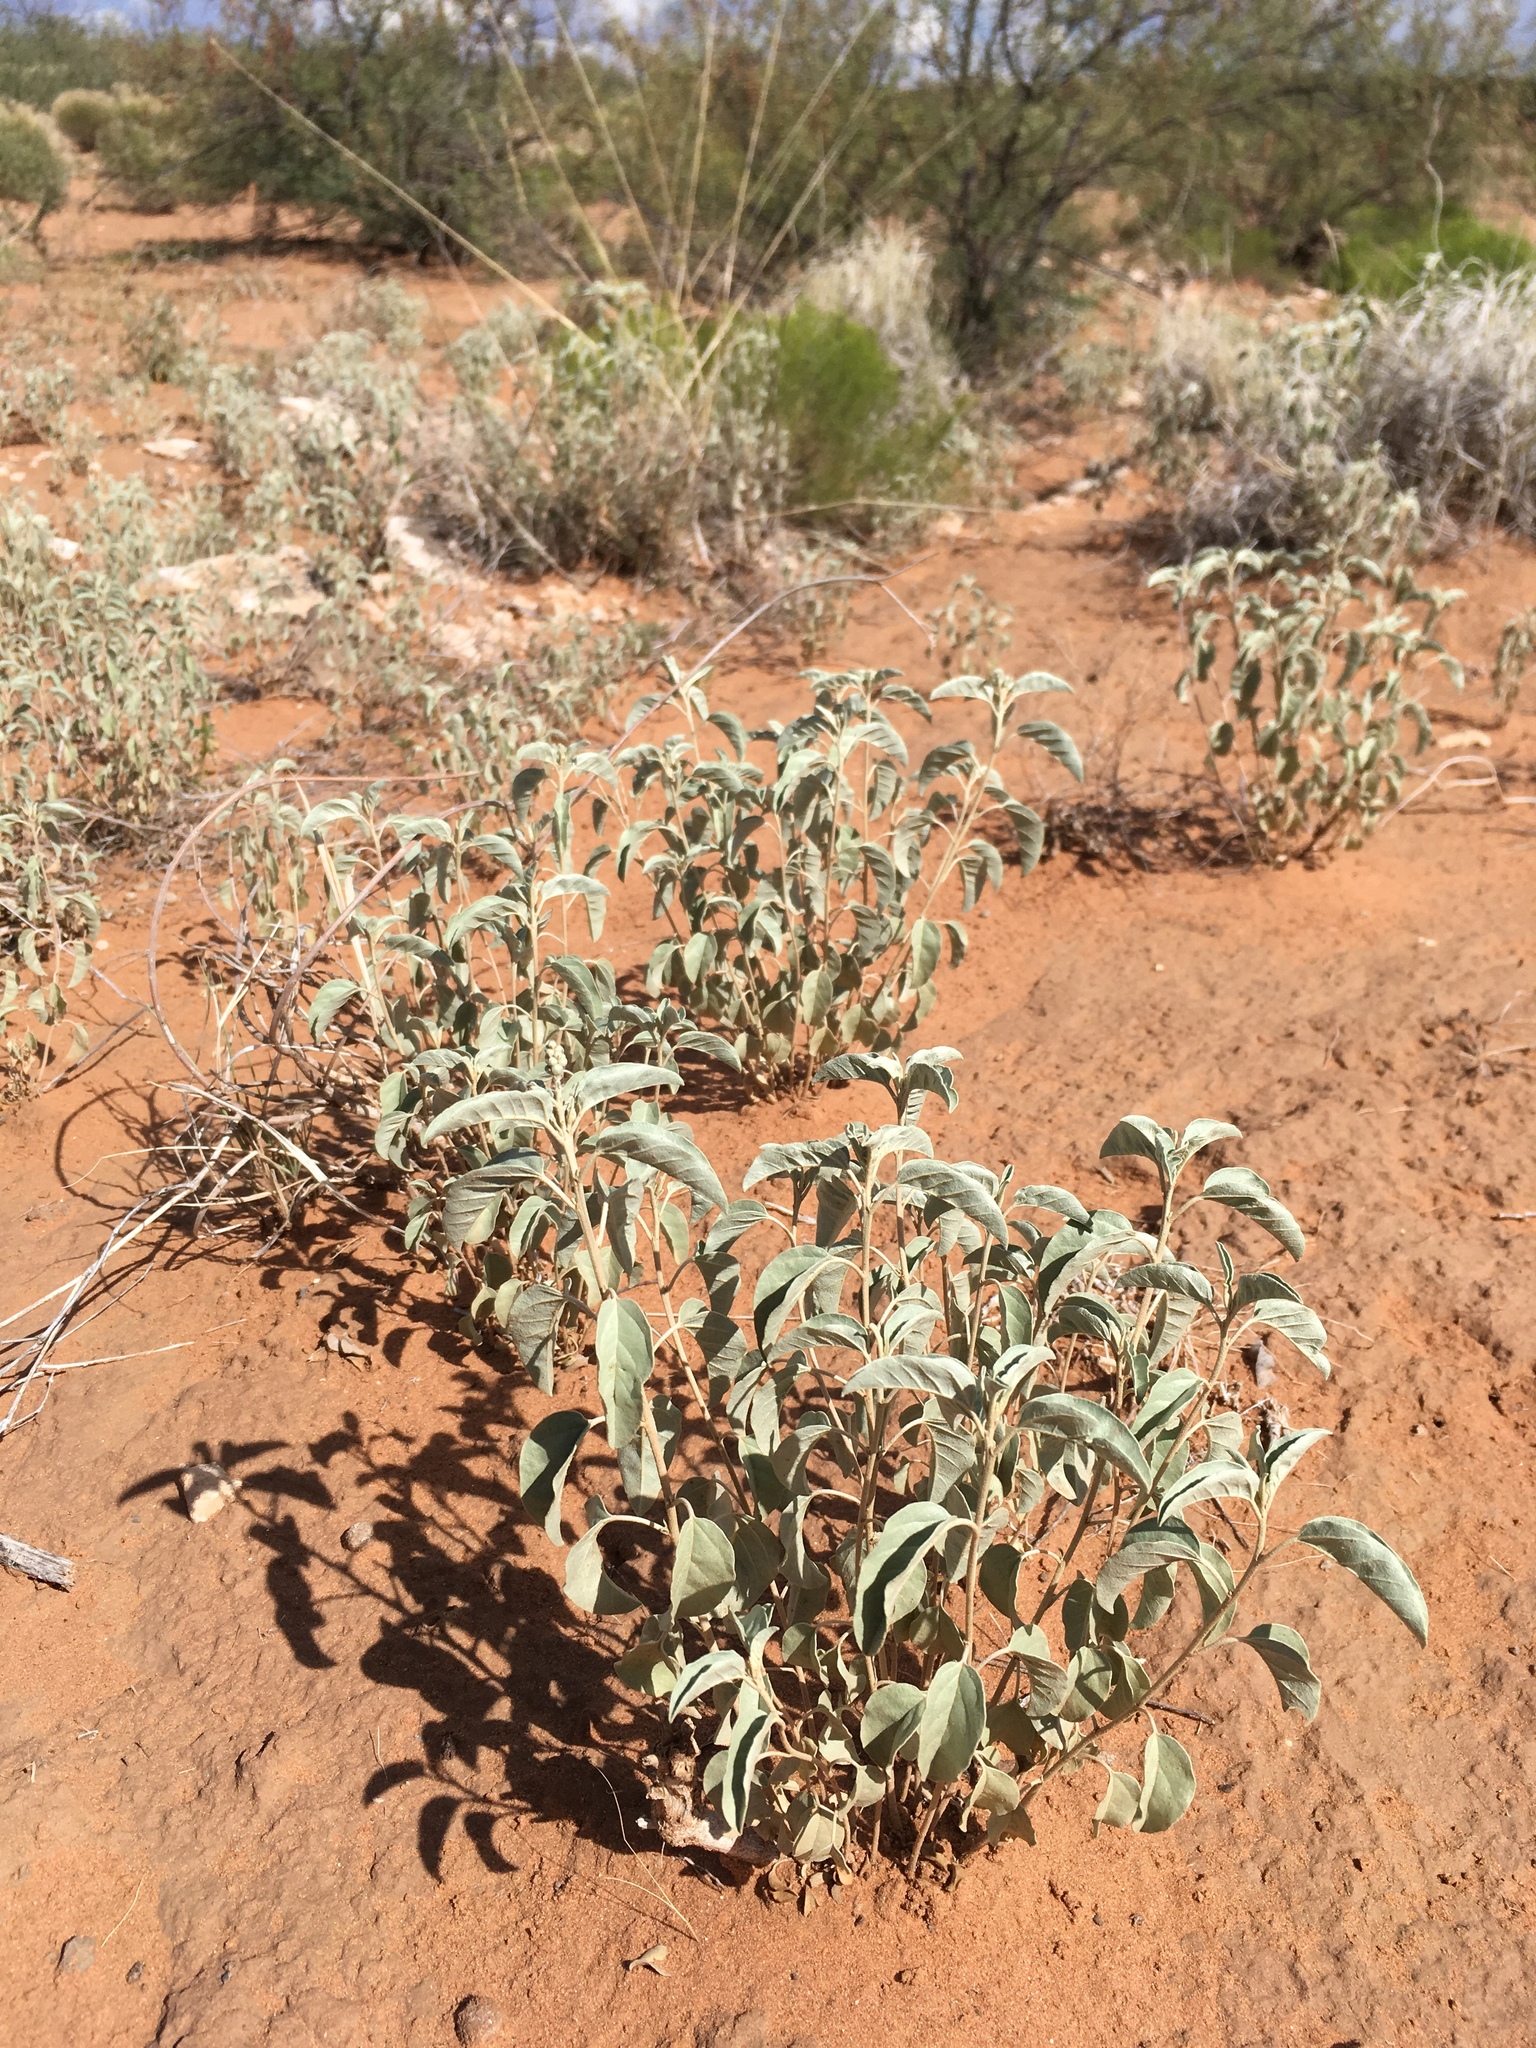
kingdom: Plantae
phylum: Tracheophyta
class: Magnoliopsida
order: Malpighiales
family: Euphorbiaceae
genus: Croton
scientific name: Croton pottsii
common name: Leatherweed
